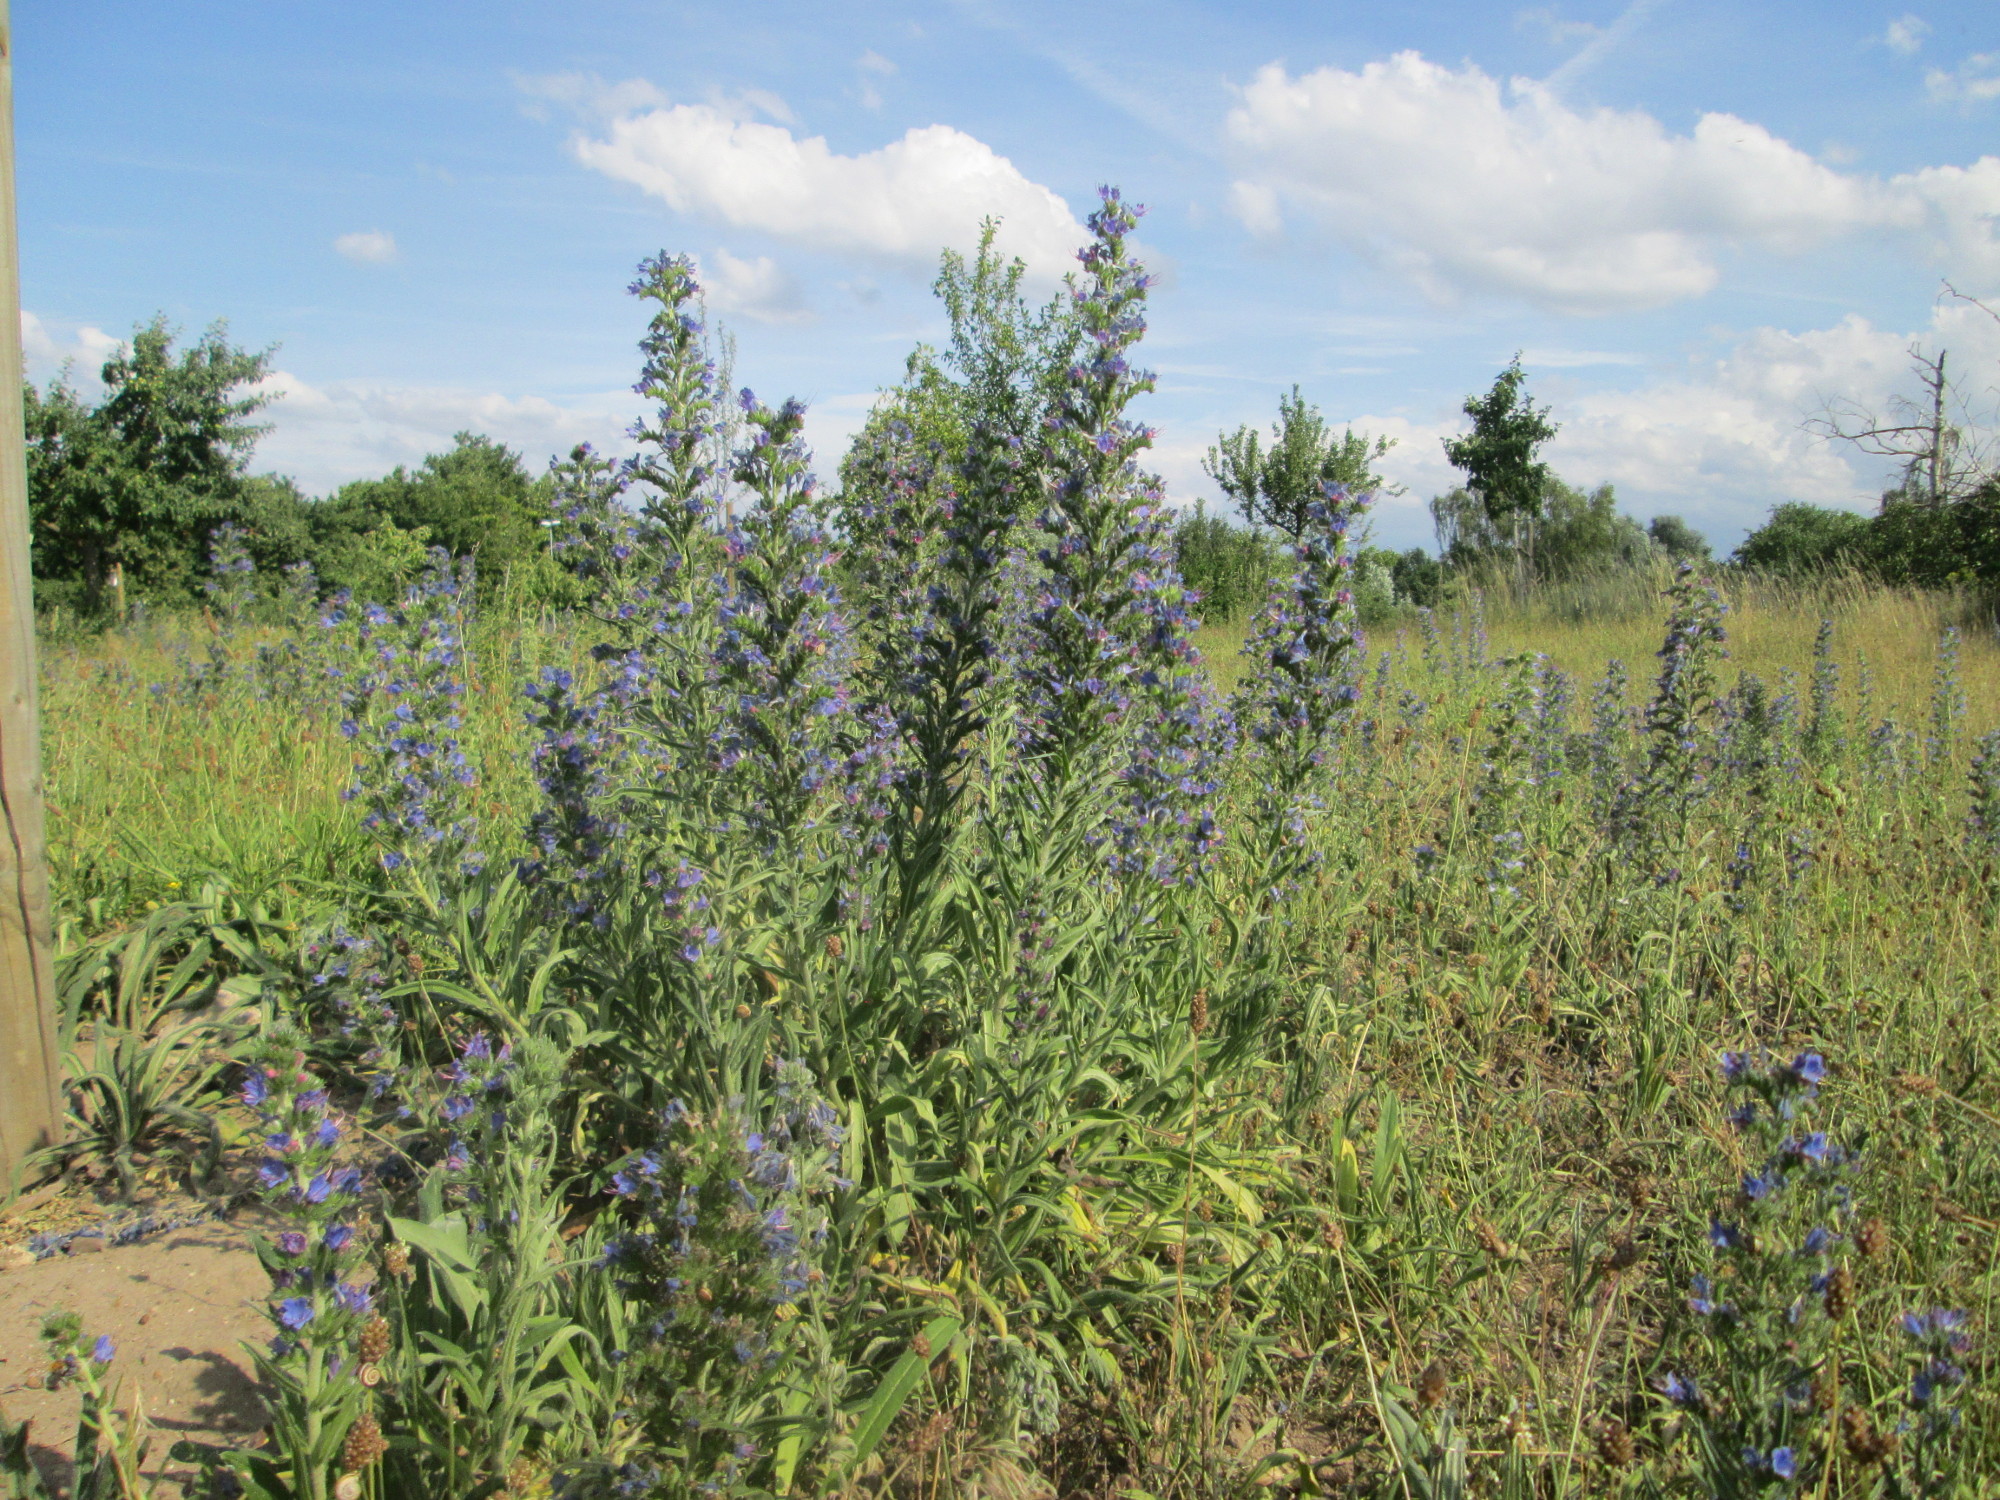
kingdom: Plantae
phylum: Tracheophyta
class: Magnoliopsida
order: Boraginales
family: Boraginaceae
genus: Echium
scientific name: Echium vulgare
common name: Common viper's bugloss
